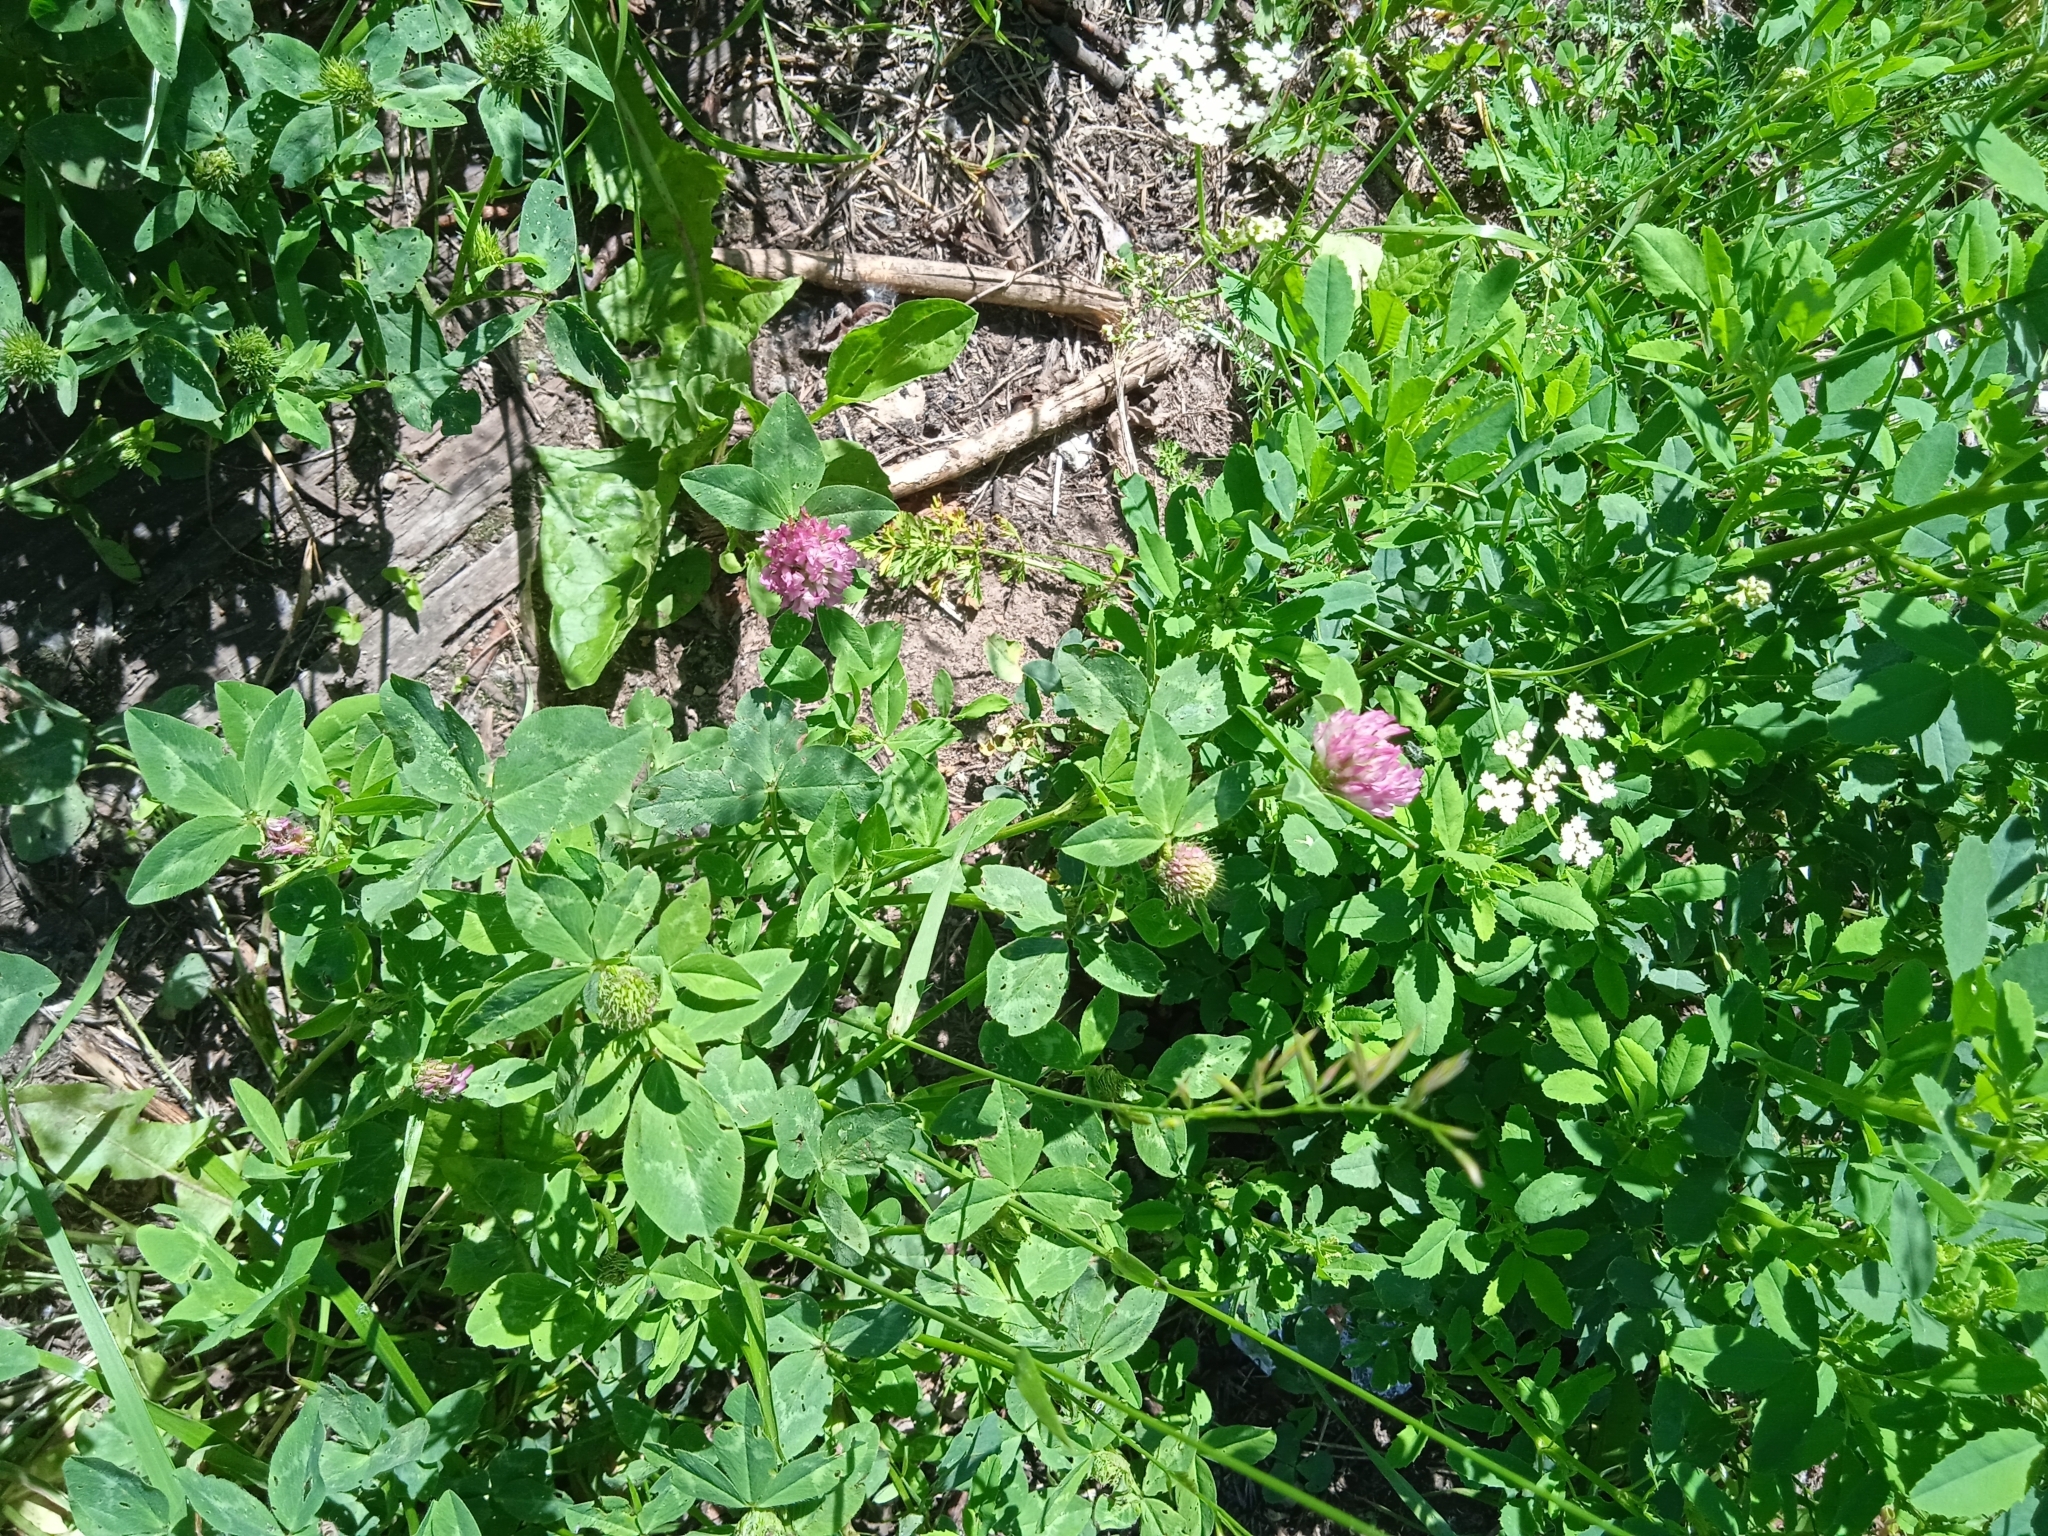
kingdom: Plantae
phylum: Tracheophyta
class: Magnoliopsida
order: Fabales
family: Fabaceae
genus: Trifolium
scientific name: Trifolium pratense
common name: Red clover
